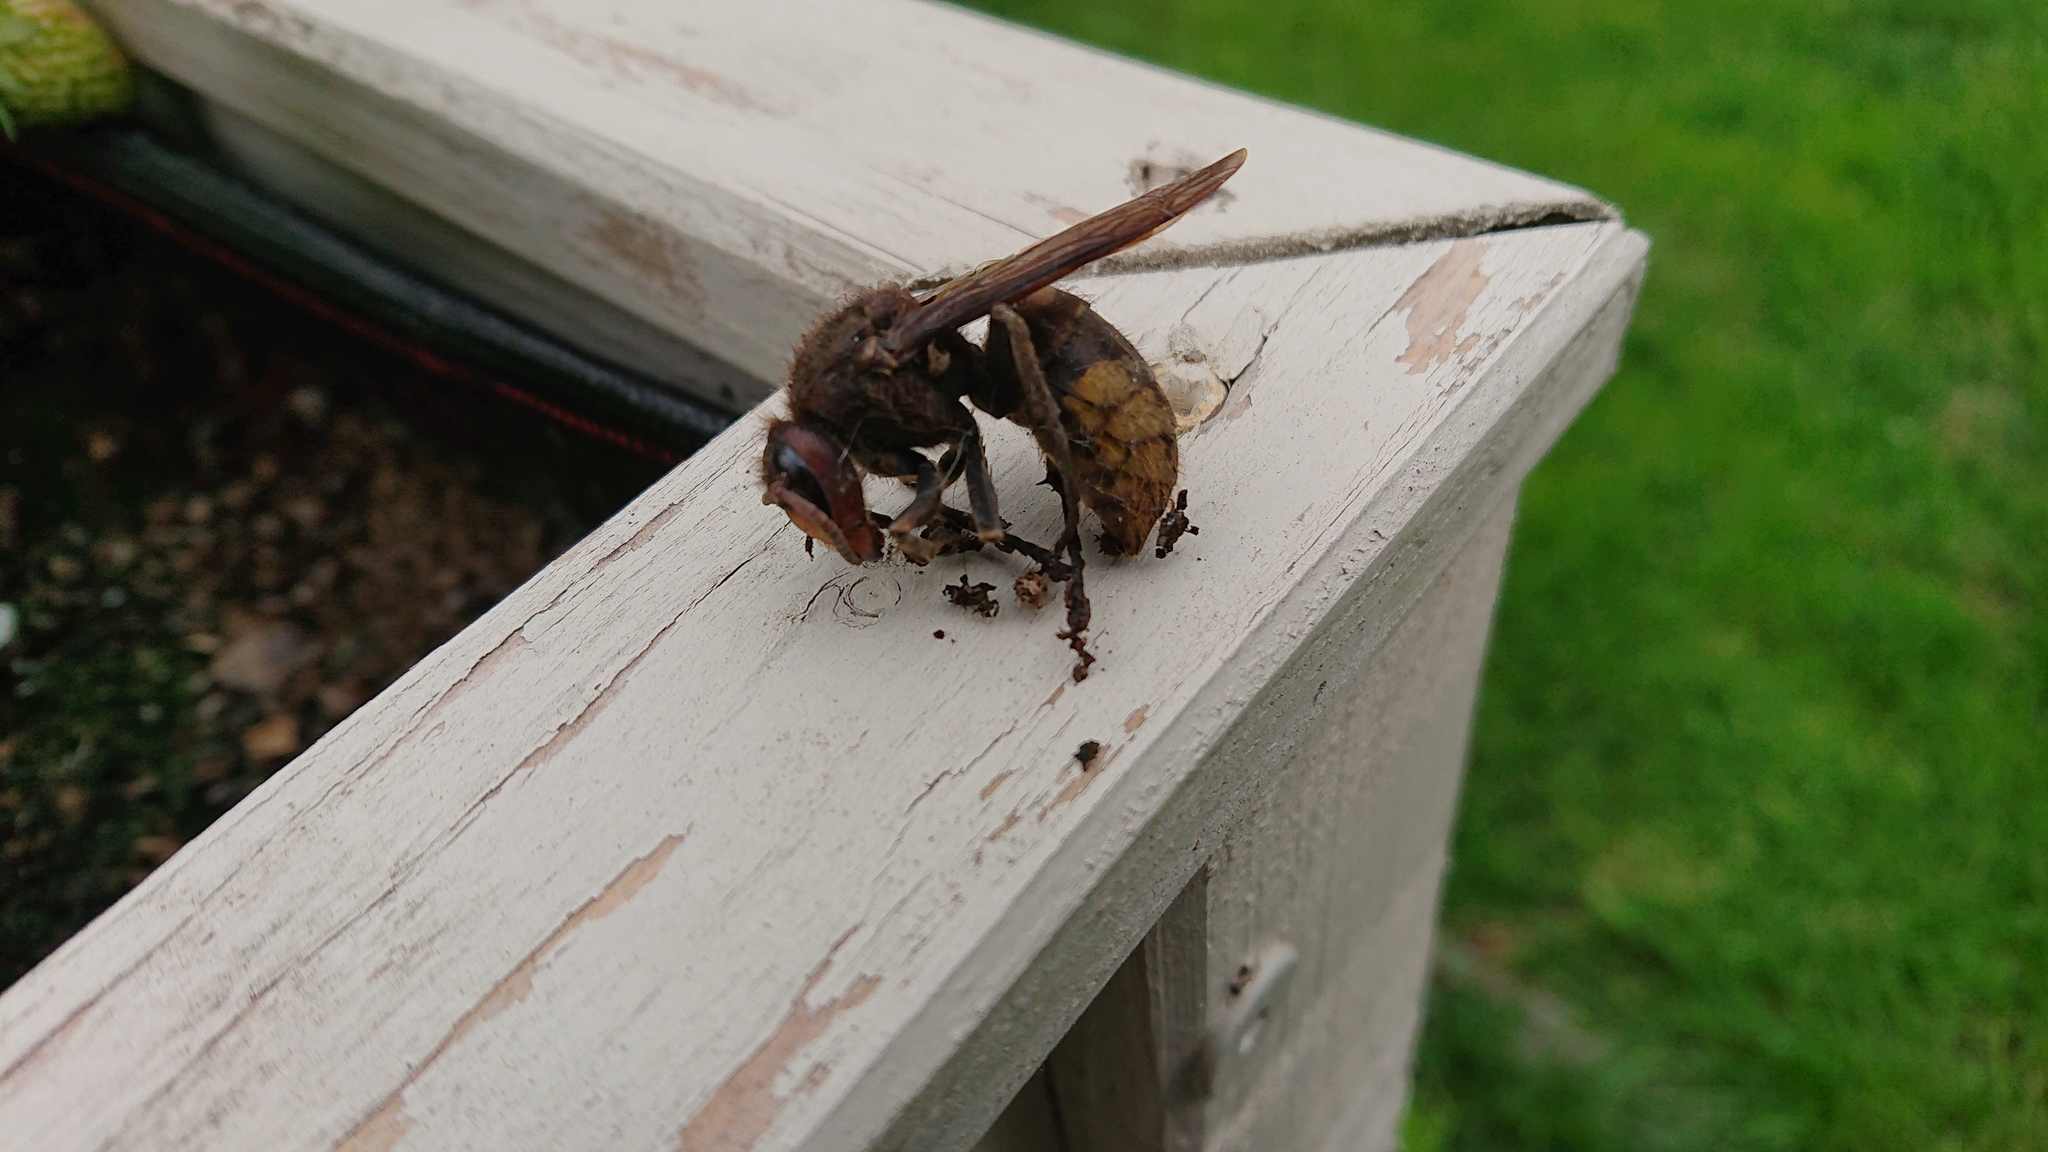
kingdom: Animalia
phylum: Arthropoda
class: Insecta
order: Hymenoptera
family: Vespidae
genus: Vespa
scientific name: Vespa crabro
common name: Hornet
